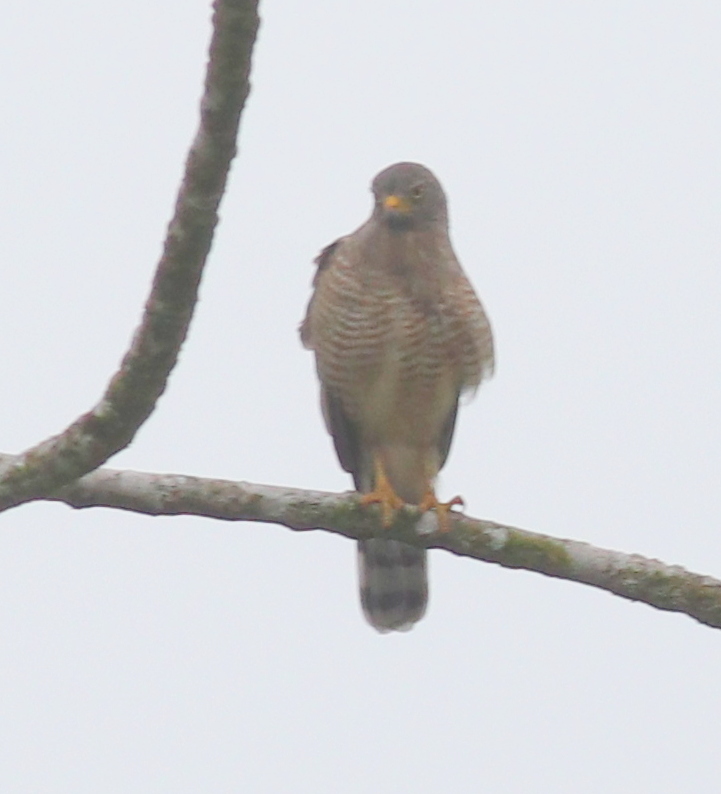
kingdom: Animalia
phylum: Chordata
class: Aves
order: Accipitriformes
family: Accipitridae
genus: Rupornis
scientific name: Rupornis magnirostris
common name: Roadside hawk
